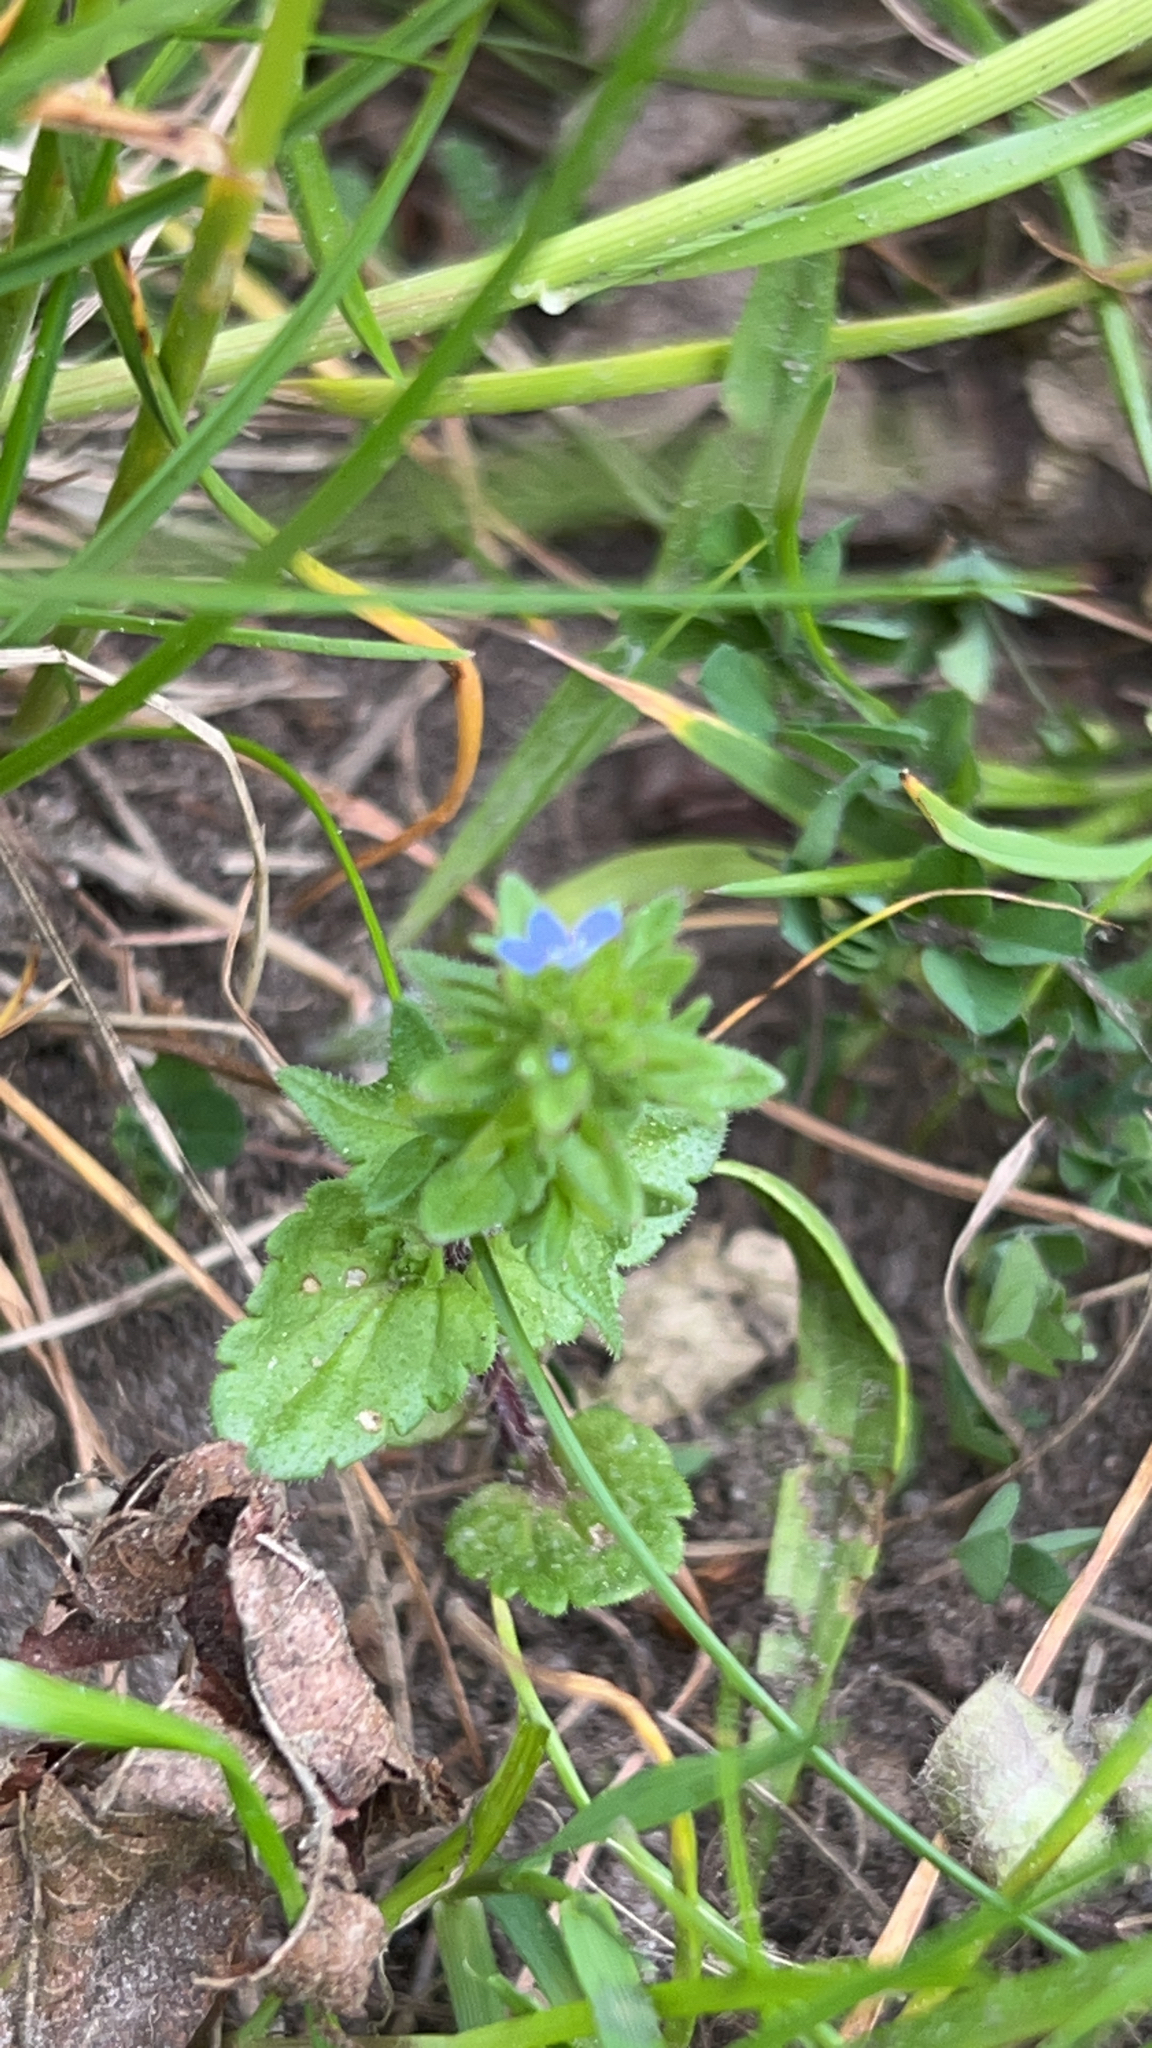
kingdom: Plantae
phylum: Tracheophyta
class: Magnoliopsida
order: Lamiales
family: Plantaginaceae
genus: Veronica
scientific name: Veronica arvensis
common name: Corn speedwell
